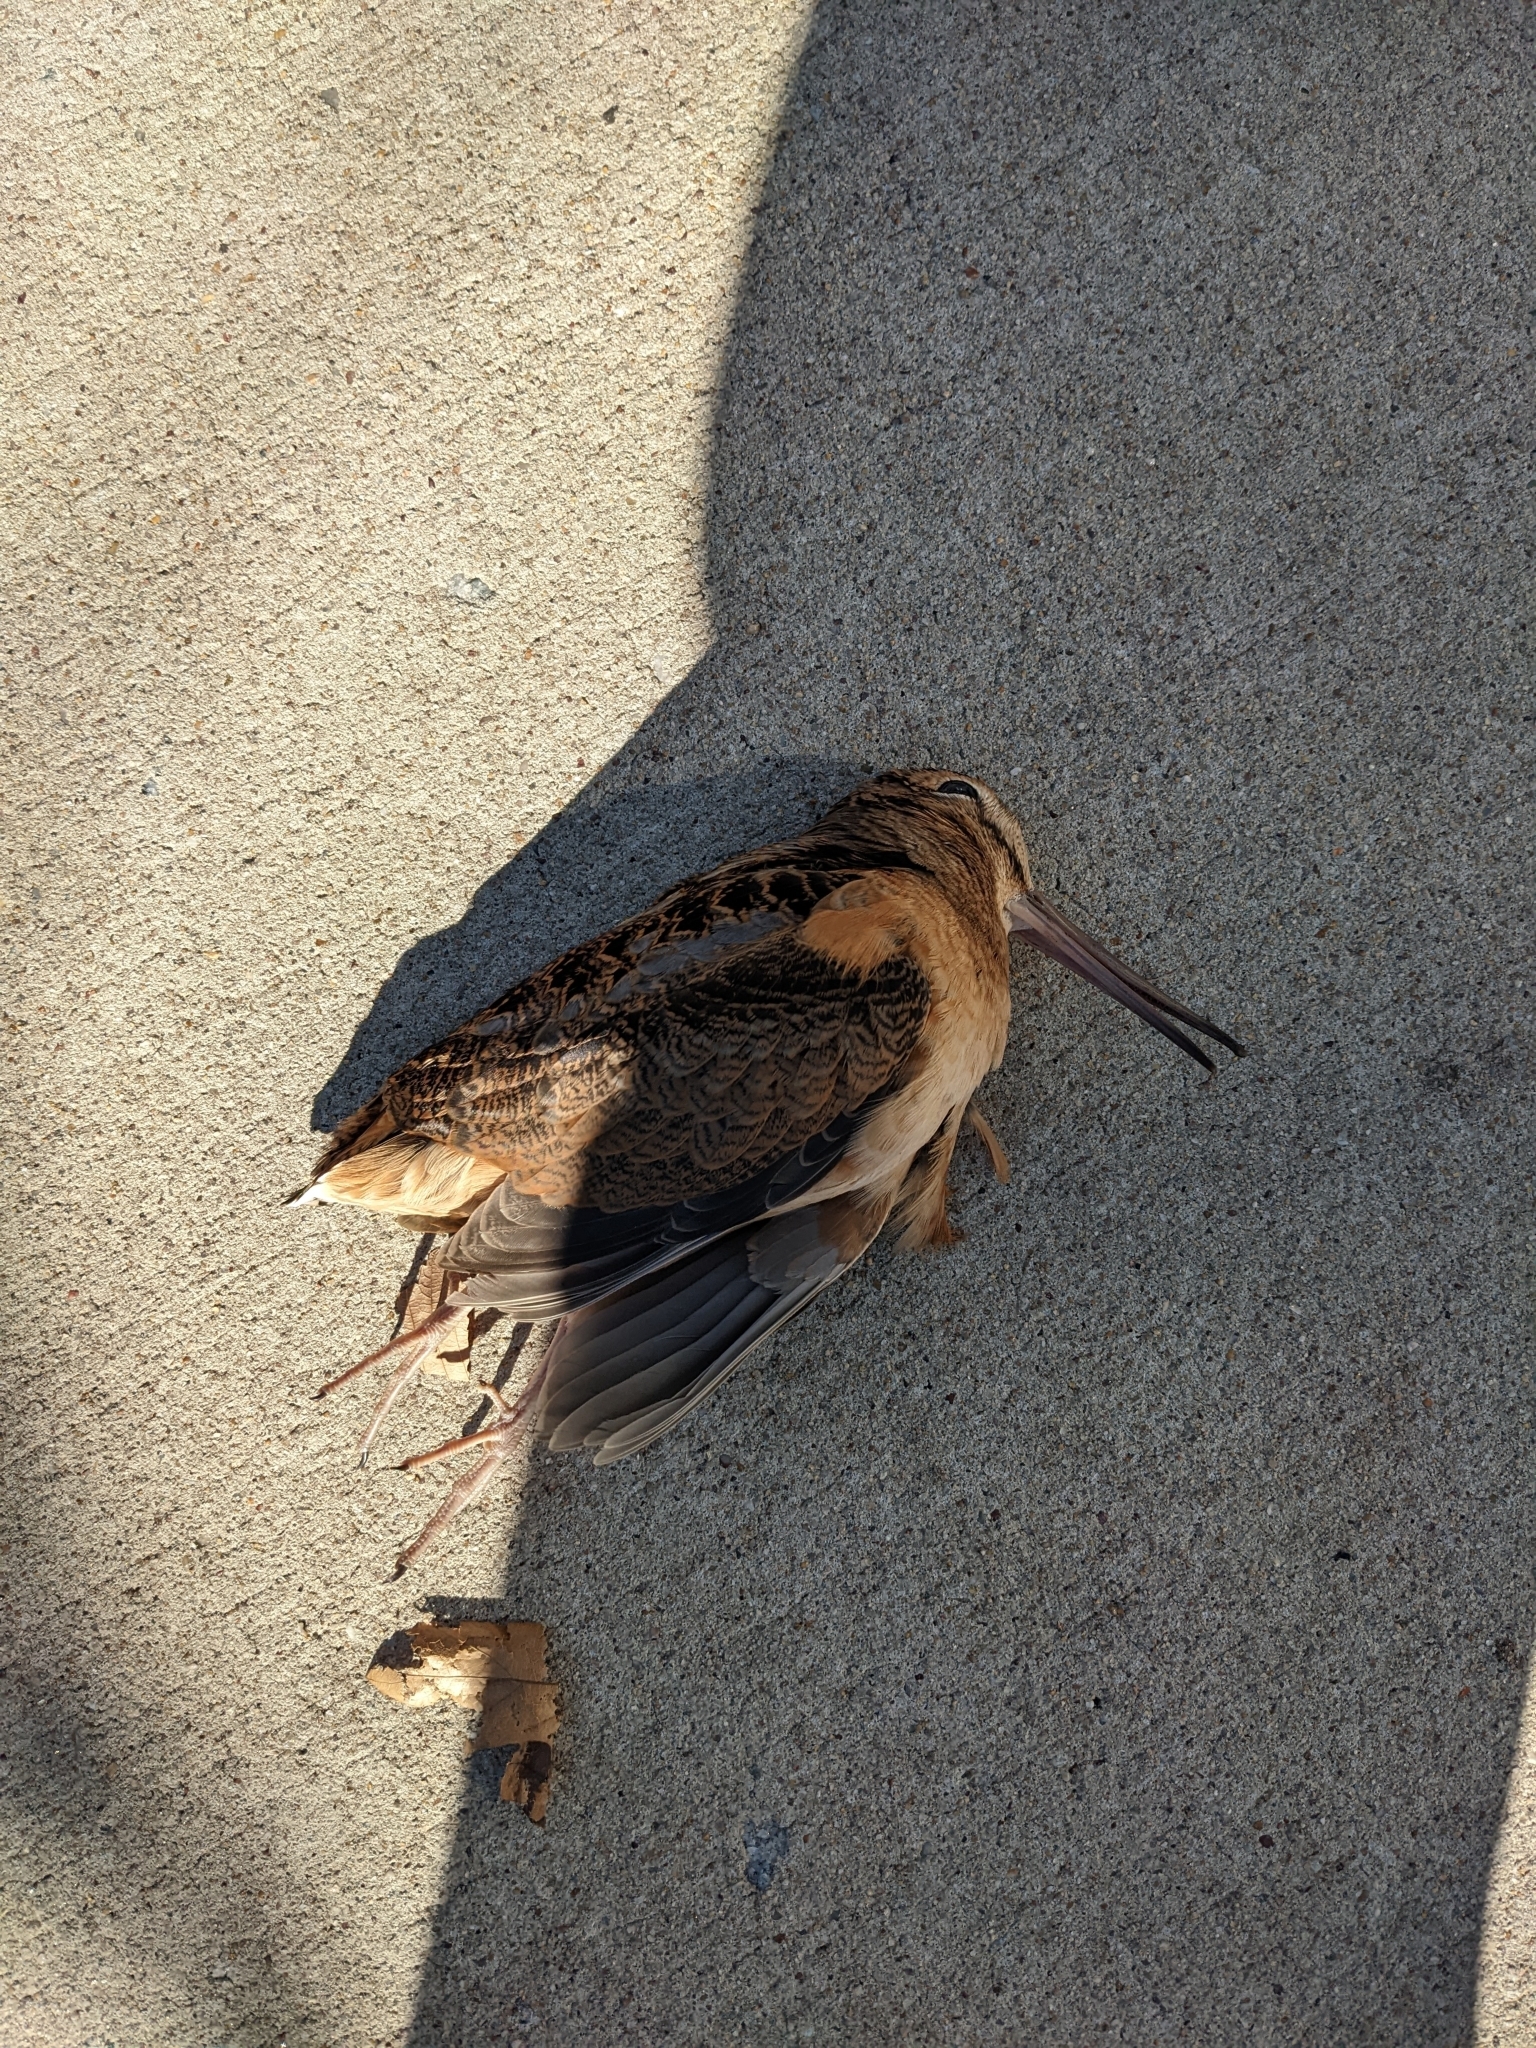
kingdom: Animalia
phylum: Chordata
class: Aves
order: Charadriiformes
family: Scolopacidae
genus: Scolopax
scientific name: Scolopax minor
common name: American woodcock
